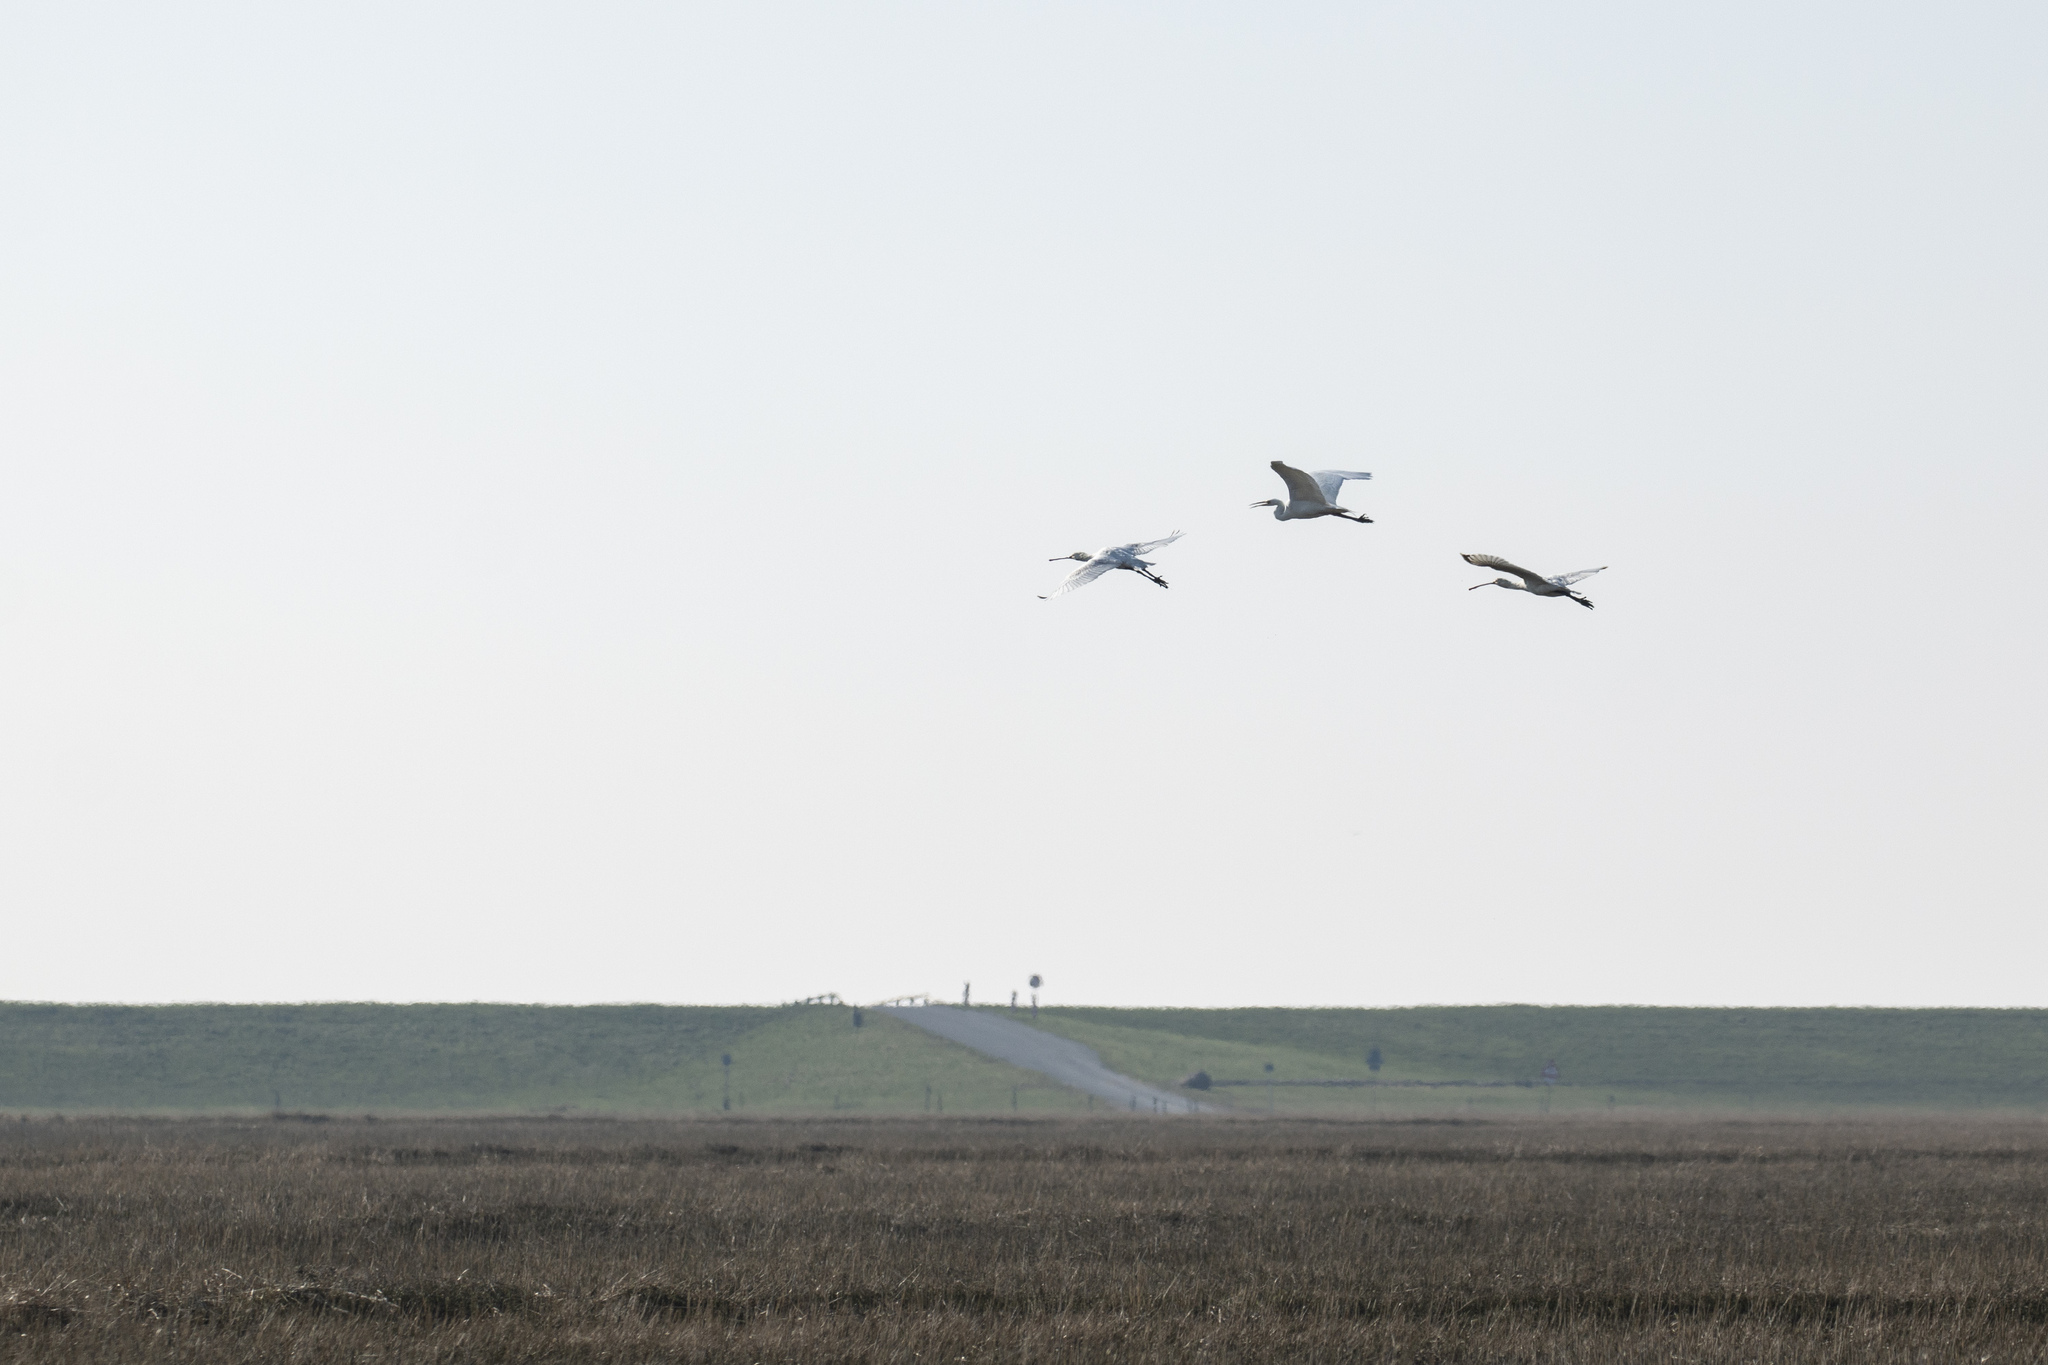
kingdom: Animalia
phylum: Chordata
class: Aves
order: Pelecaniformes
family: Threskiornithidae
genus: Platalea
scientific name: Platalea leucorodia
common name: Eurasian spoonbill
